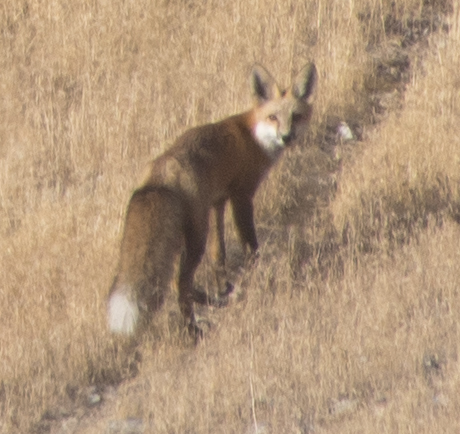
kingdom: Animalia
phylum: Chordata
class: Mammalia
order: Carnivora
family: Canidae
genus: Vulpes
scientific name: Vulpes vulpes
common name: Red fox
